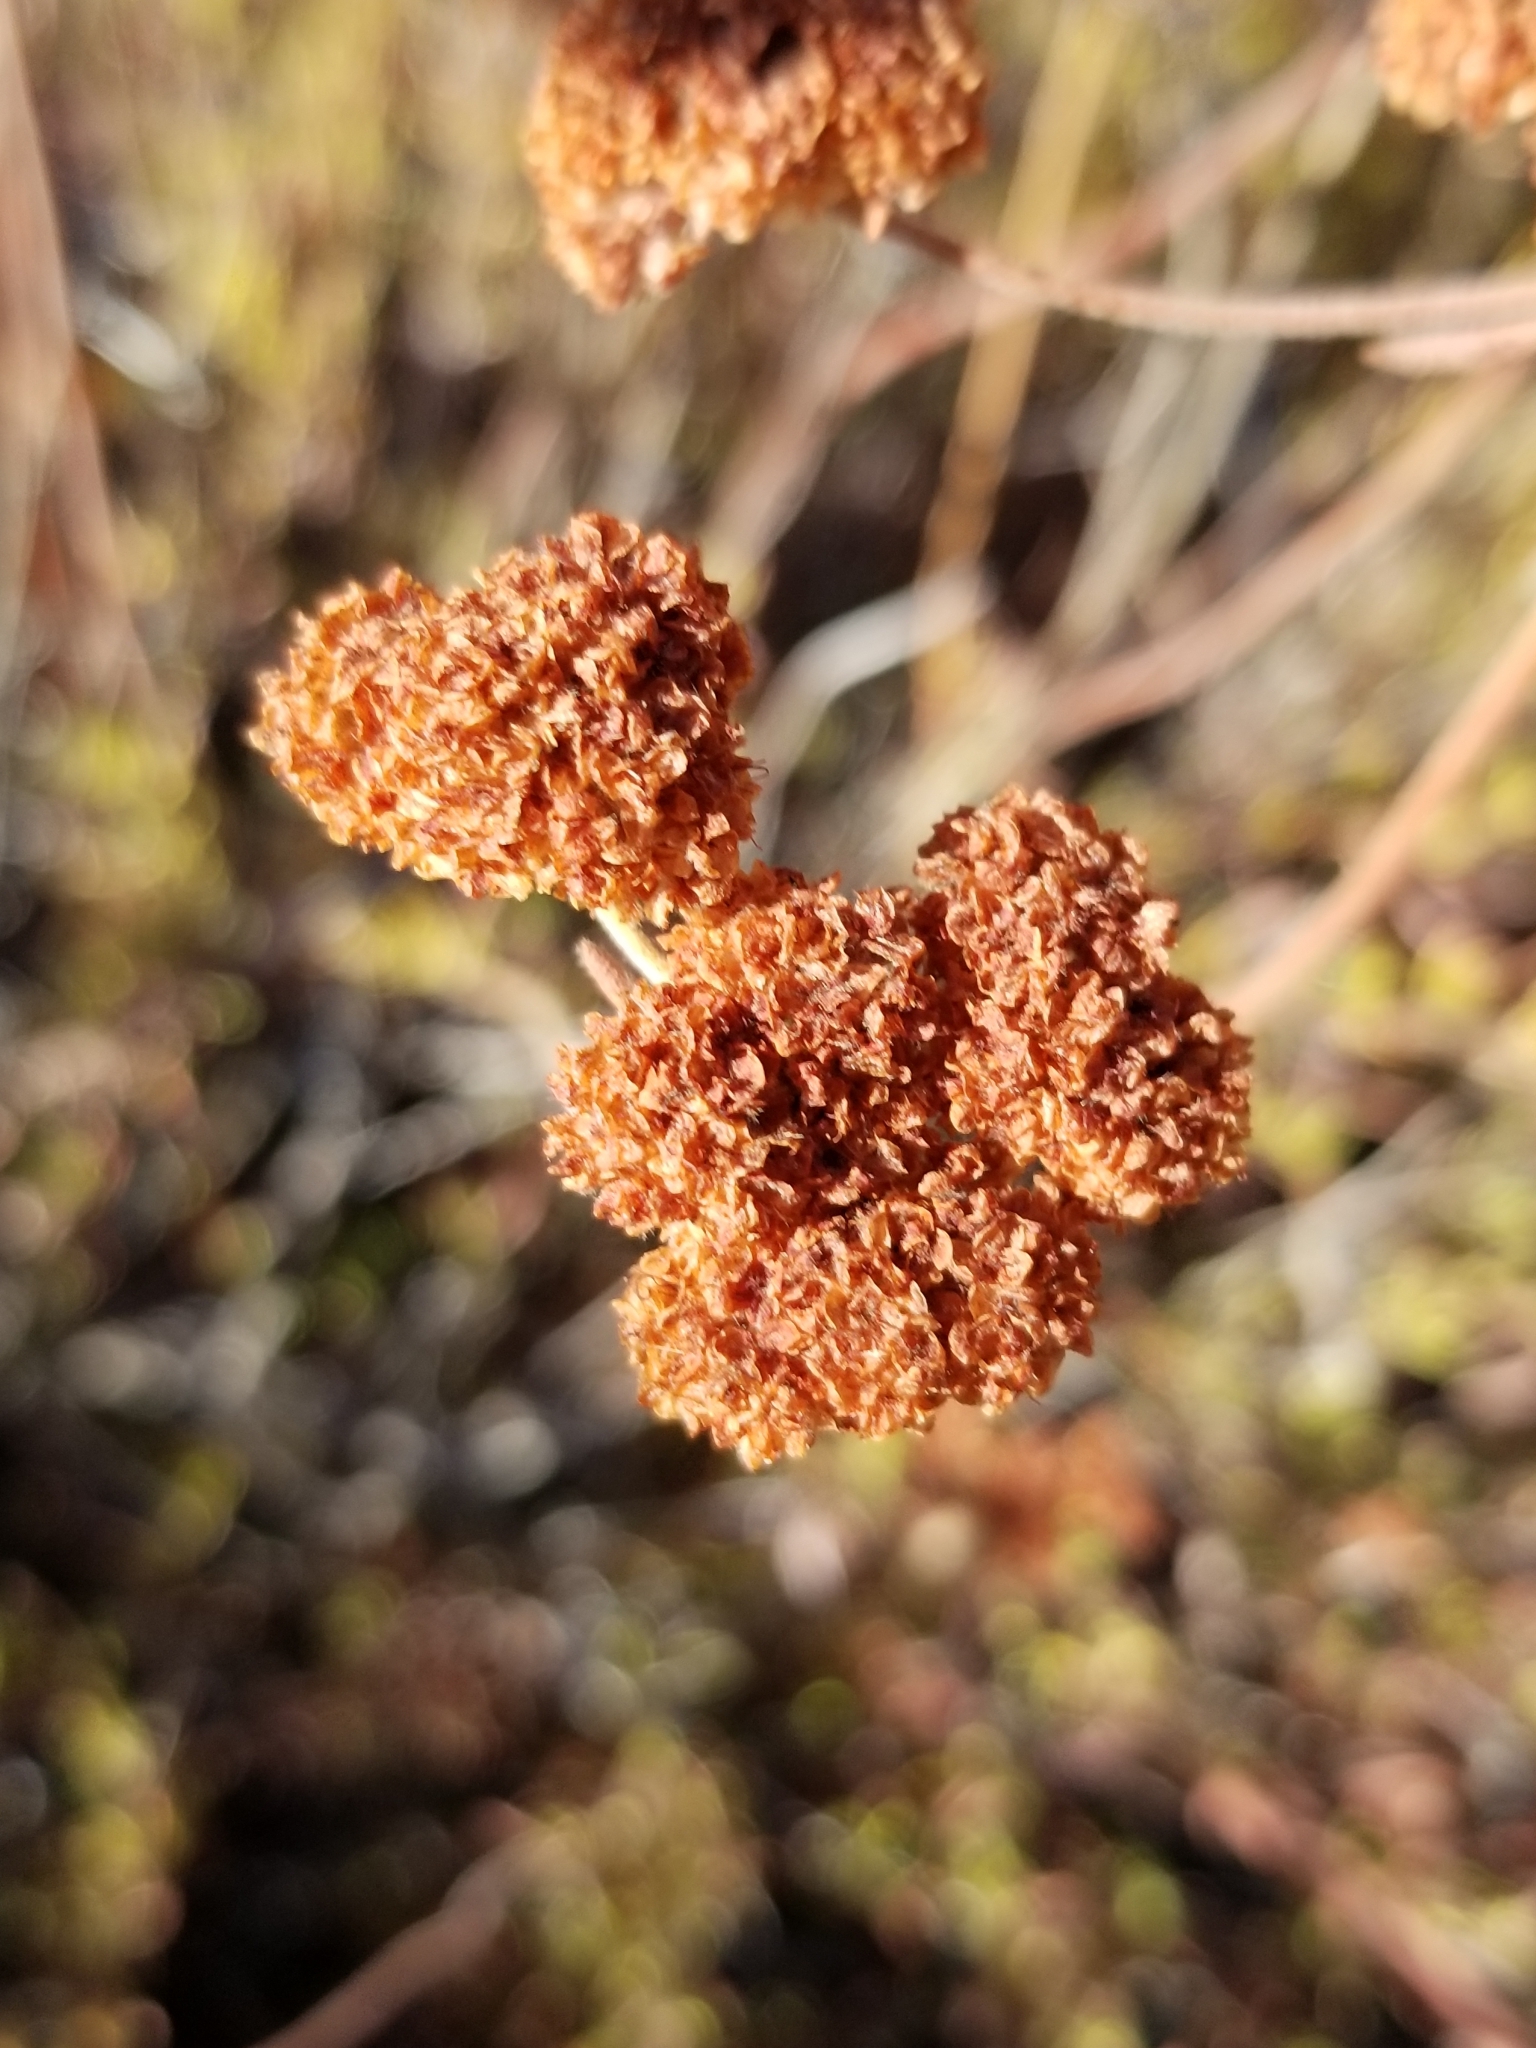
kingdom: Plantae
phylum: Tracheophyta
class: Magnoliopsida
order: Caryophyllales
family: Polygonaceae
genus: Eriogonum
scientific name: Eriogonum fasciculatum
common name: California wild buckwheat
